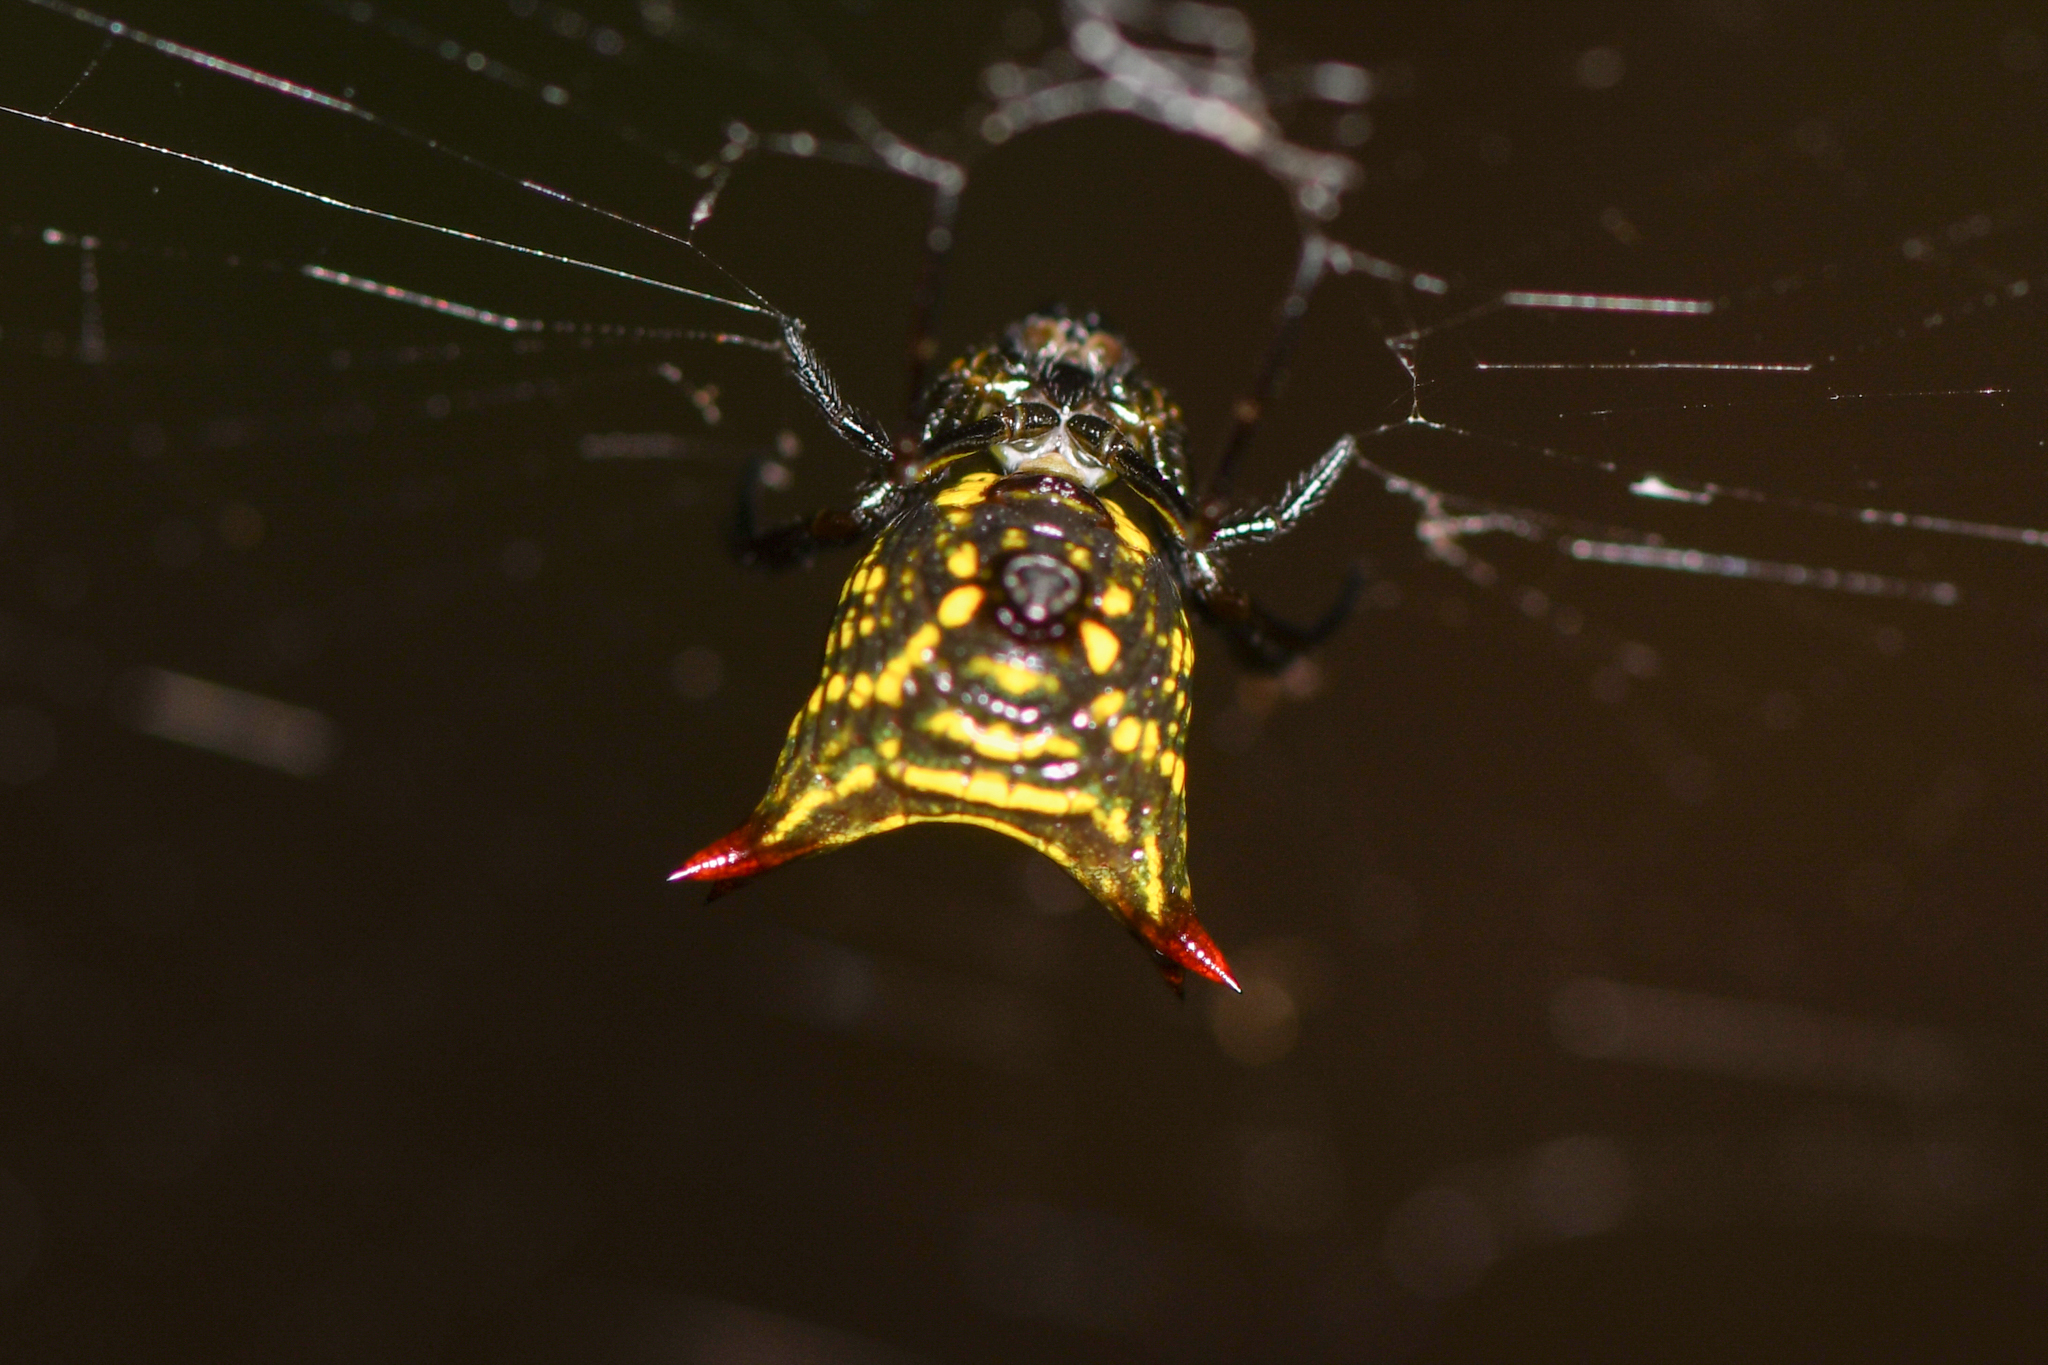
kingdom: Animalia
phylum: Arthropoda
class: Arachnida
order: Araneae
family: Araneidae
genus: Micrathena
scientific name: Micrathena crassa
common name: Orb weavers
